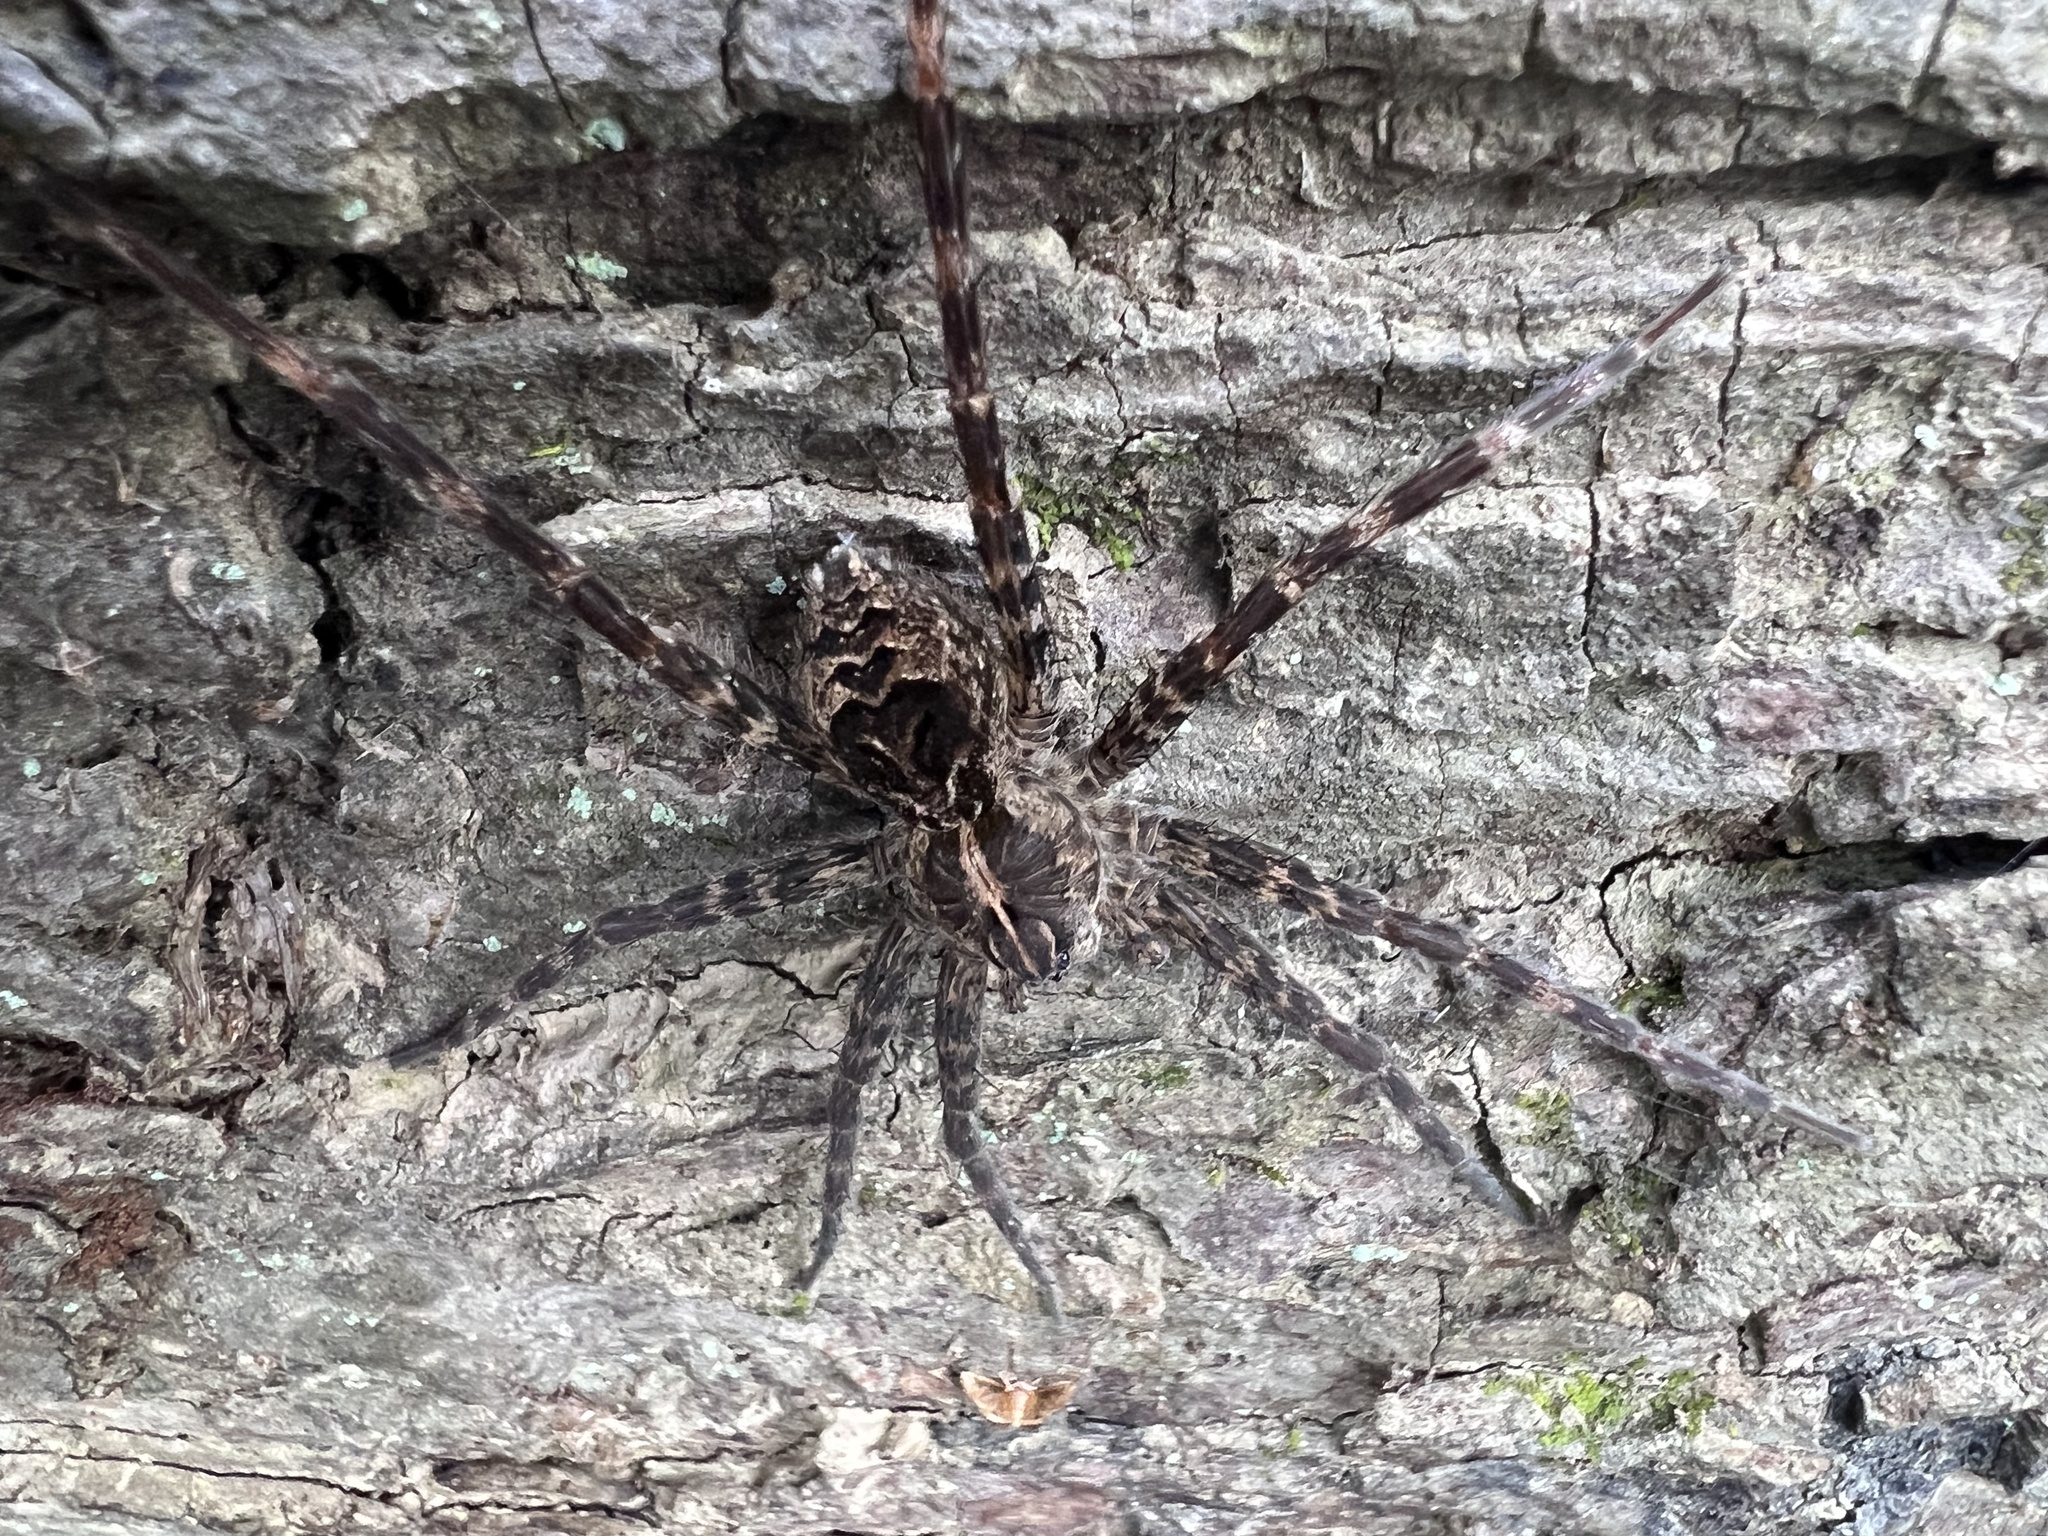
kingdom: Animalia
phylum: Arthropoda
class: Arachnida
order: Araneae
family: Pisauridae
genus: Dolomedes
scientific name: Dolomedes scriptus
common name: Striped fishing spider
